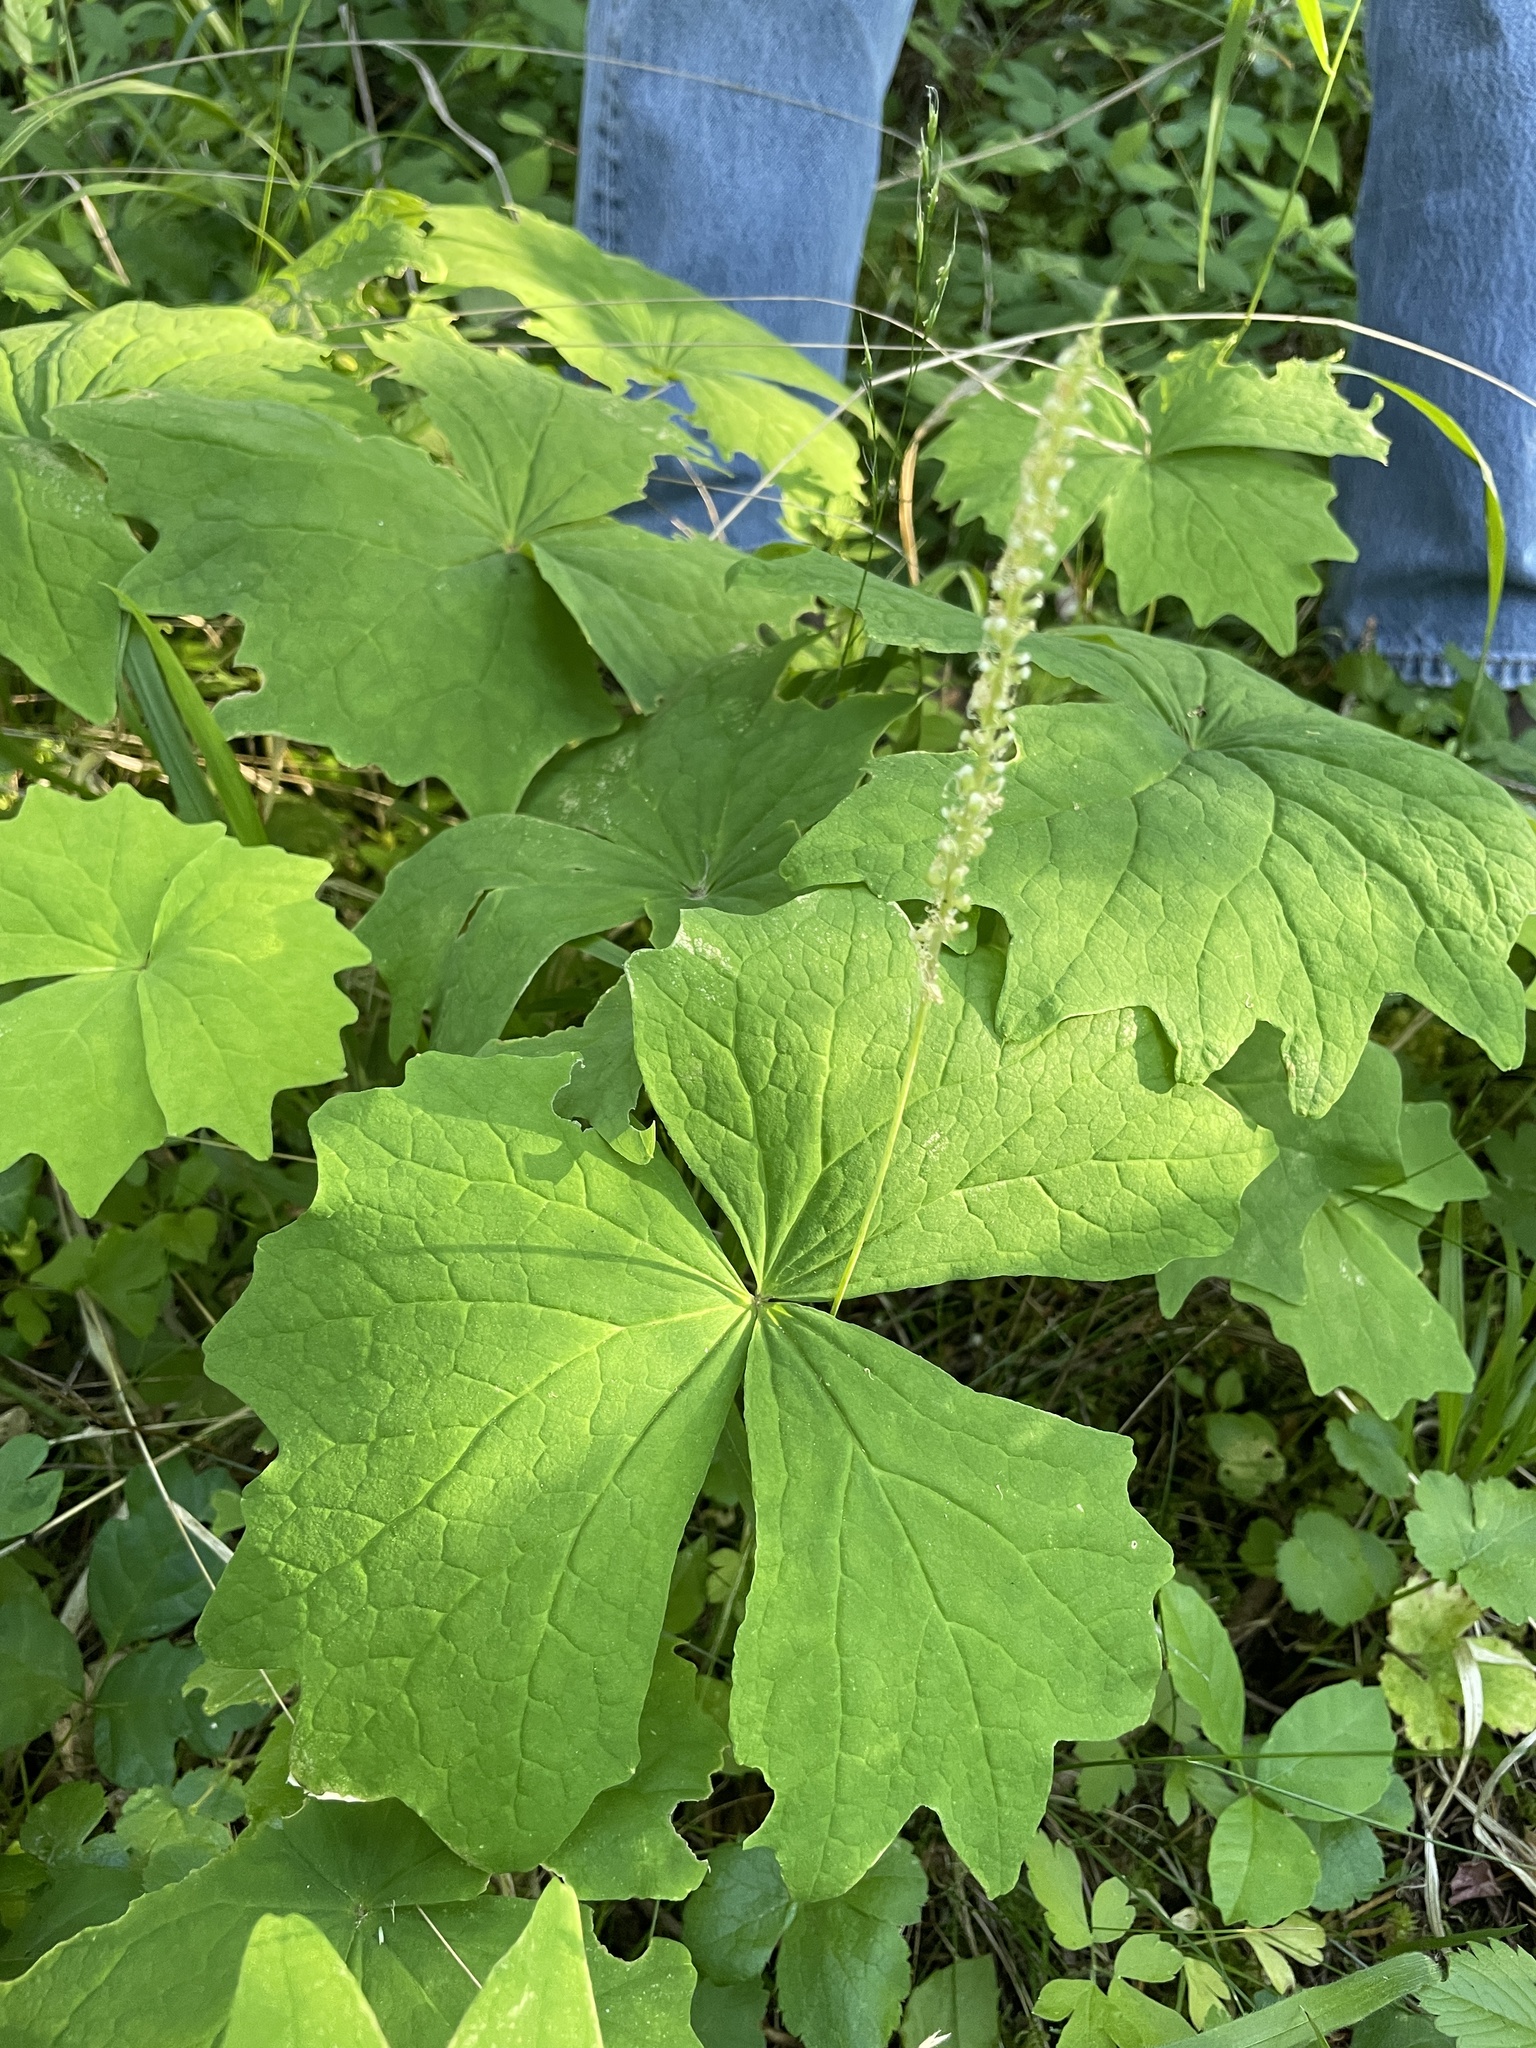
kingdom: Plantae
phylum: Tracheophyta
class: Magnoliopsida
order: Ranunculales
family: Berberidaceae
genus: Achlys
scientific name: Achlys triphylla
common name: Vanilla-leaf
